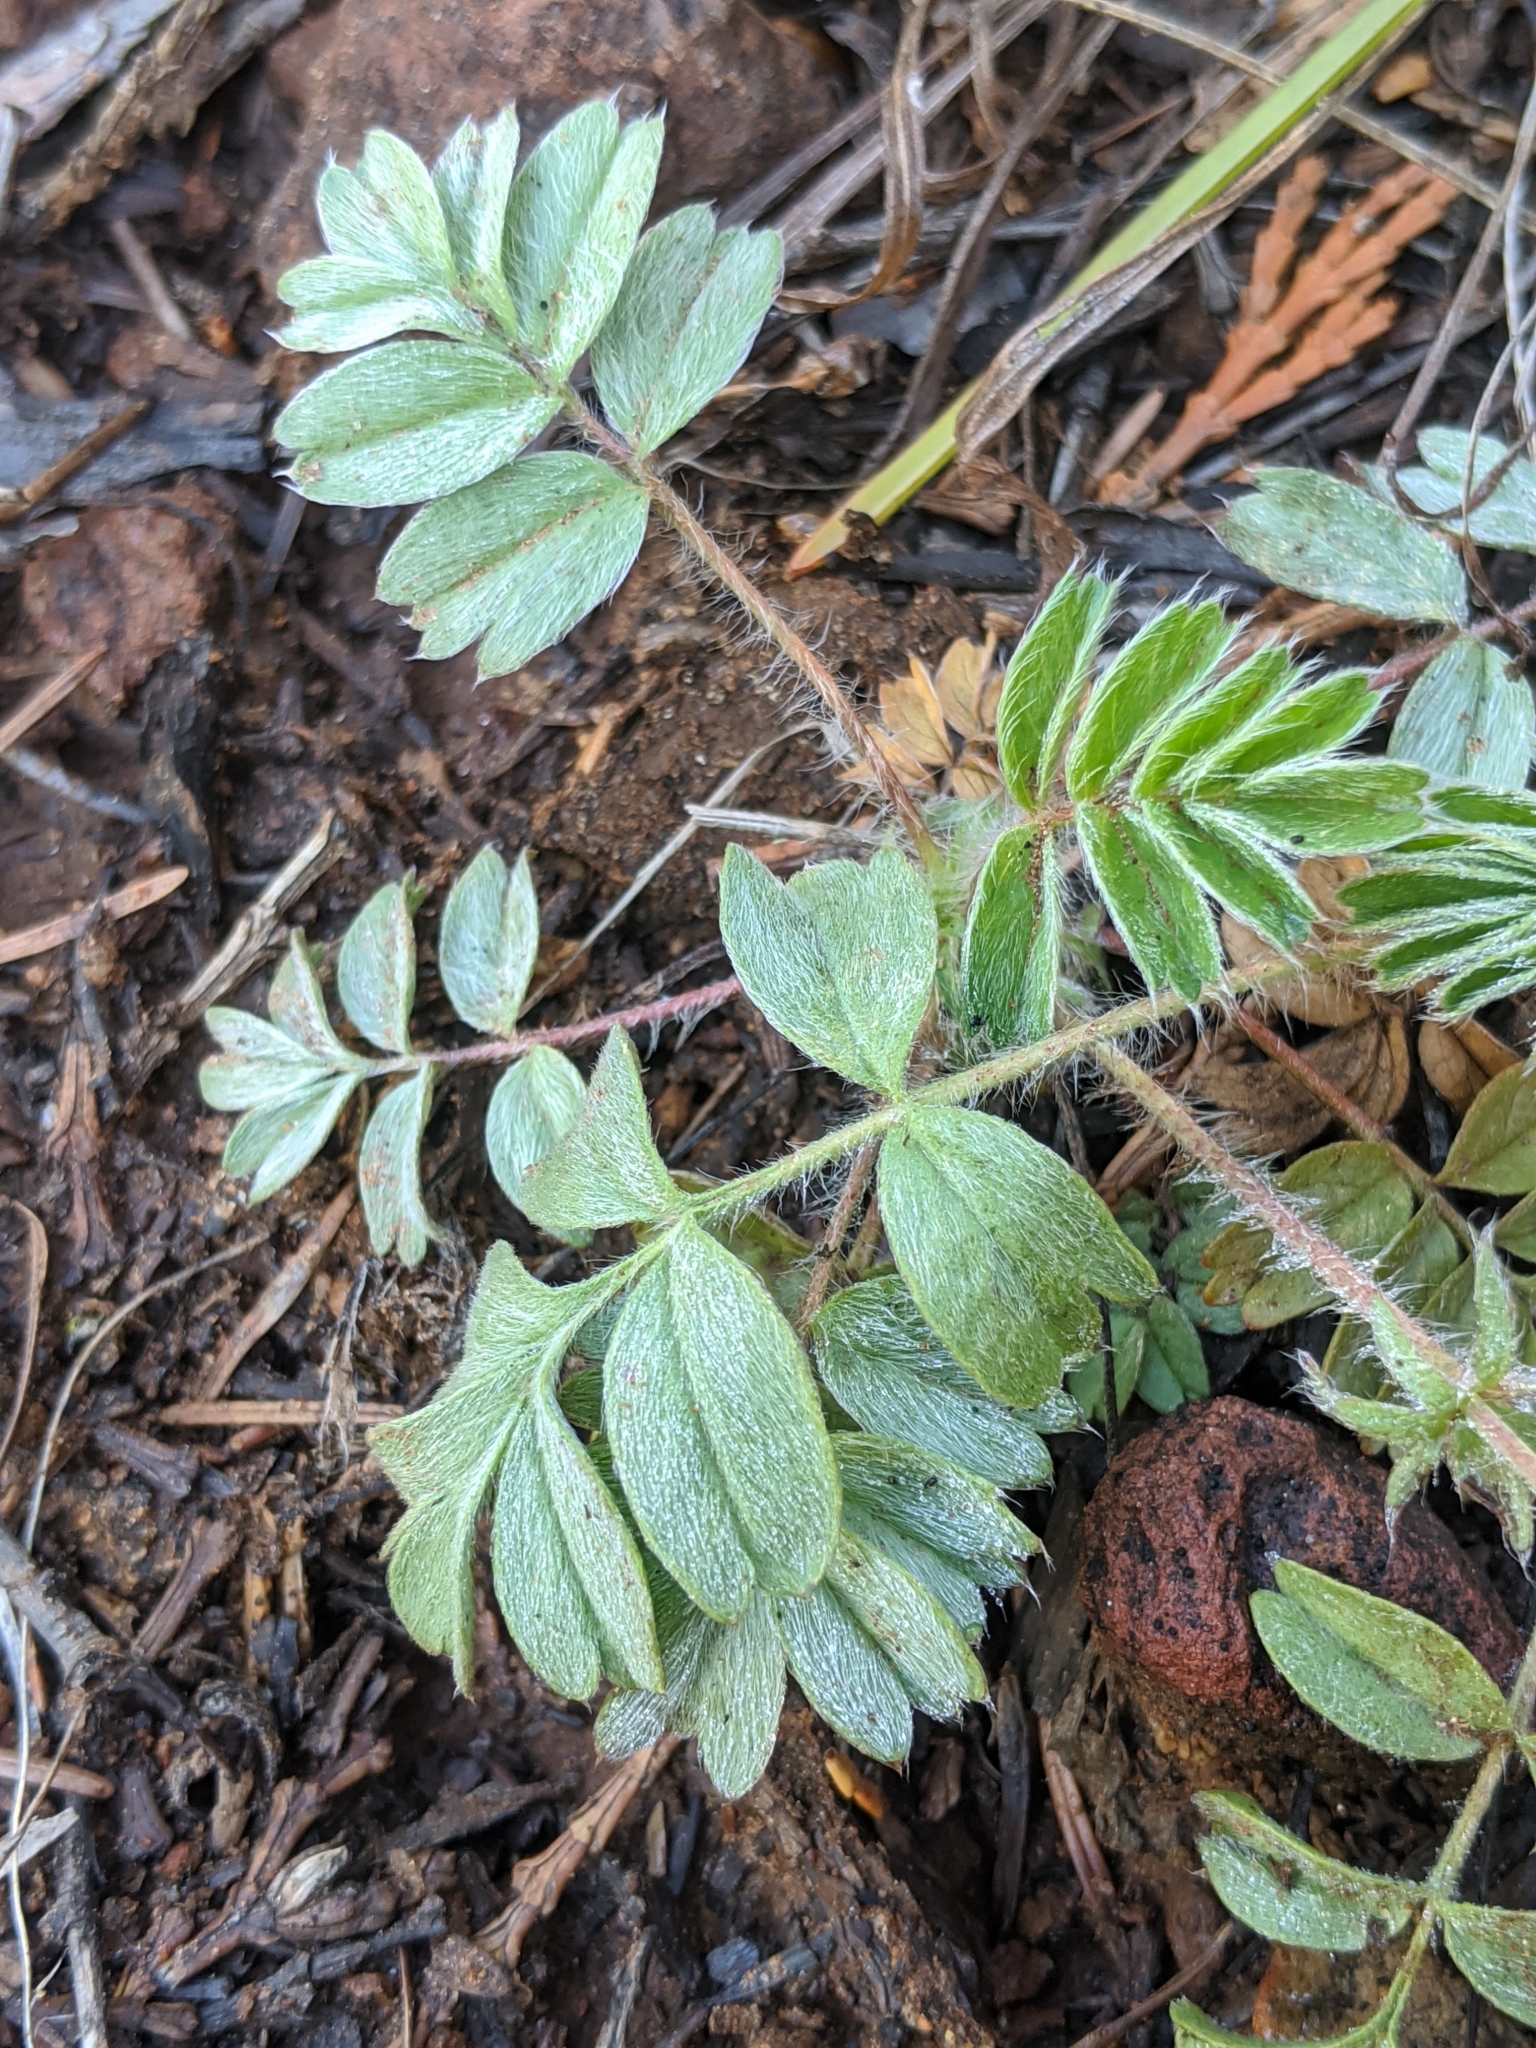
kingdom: Plantae
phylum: Tracheophyta
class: Magnoliopsida
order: Rosales
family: Rosaceae
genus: Potentilla
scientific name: Potentilla tilingii
